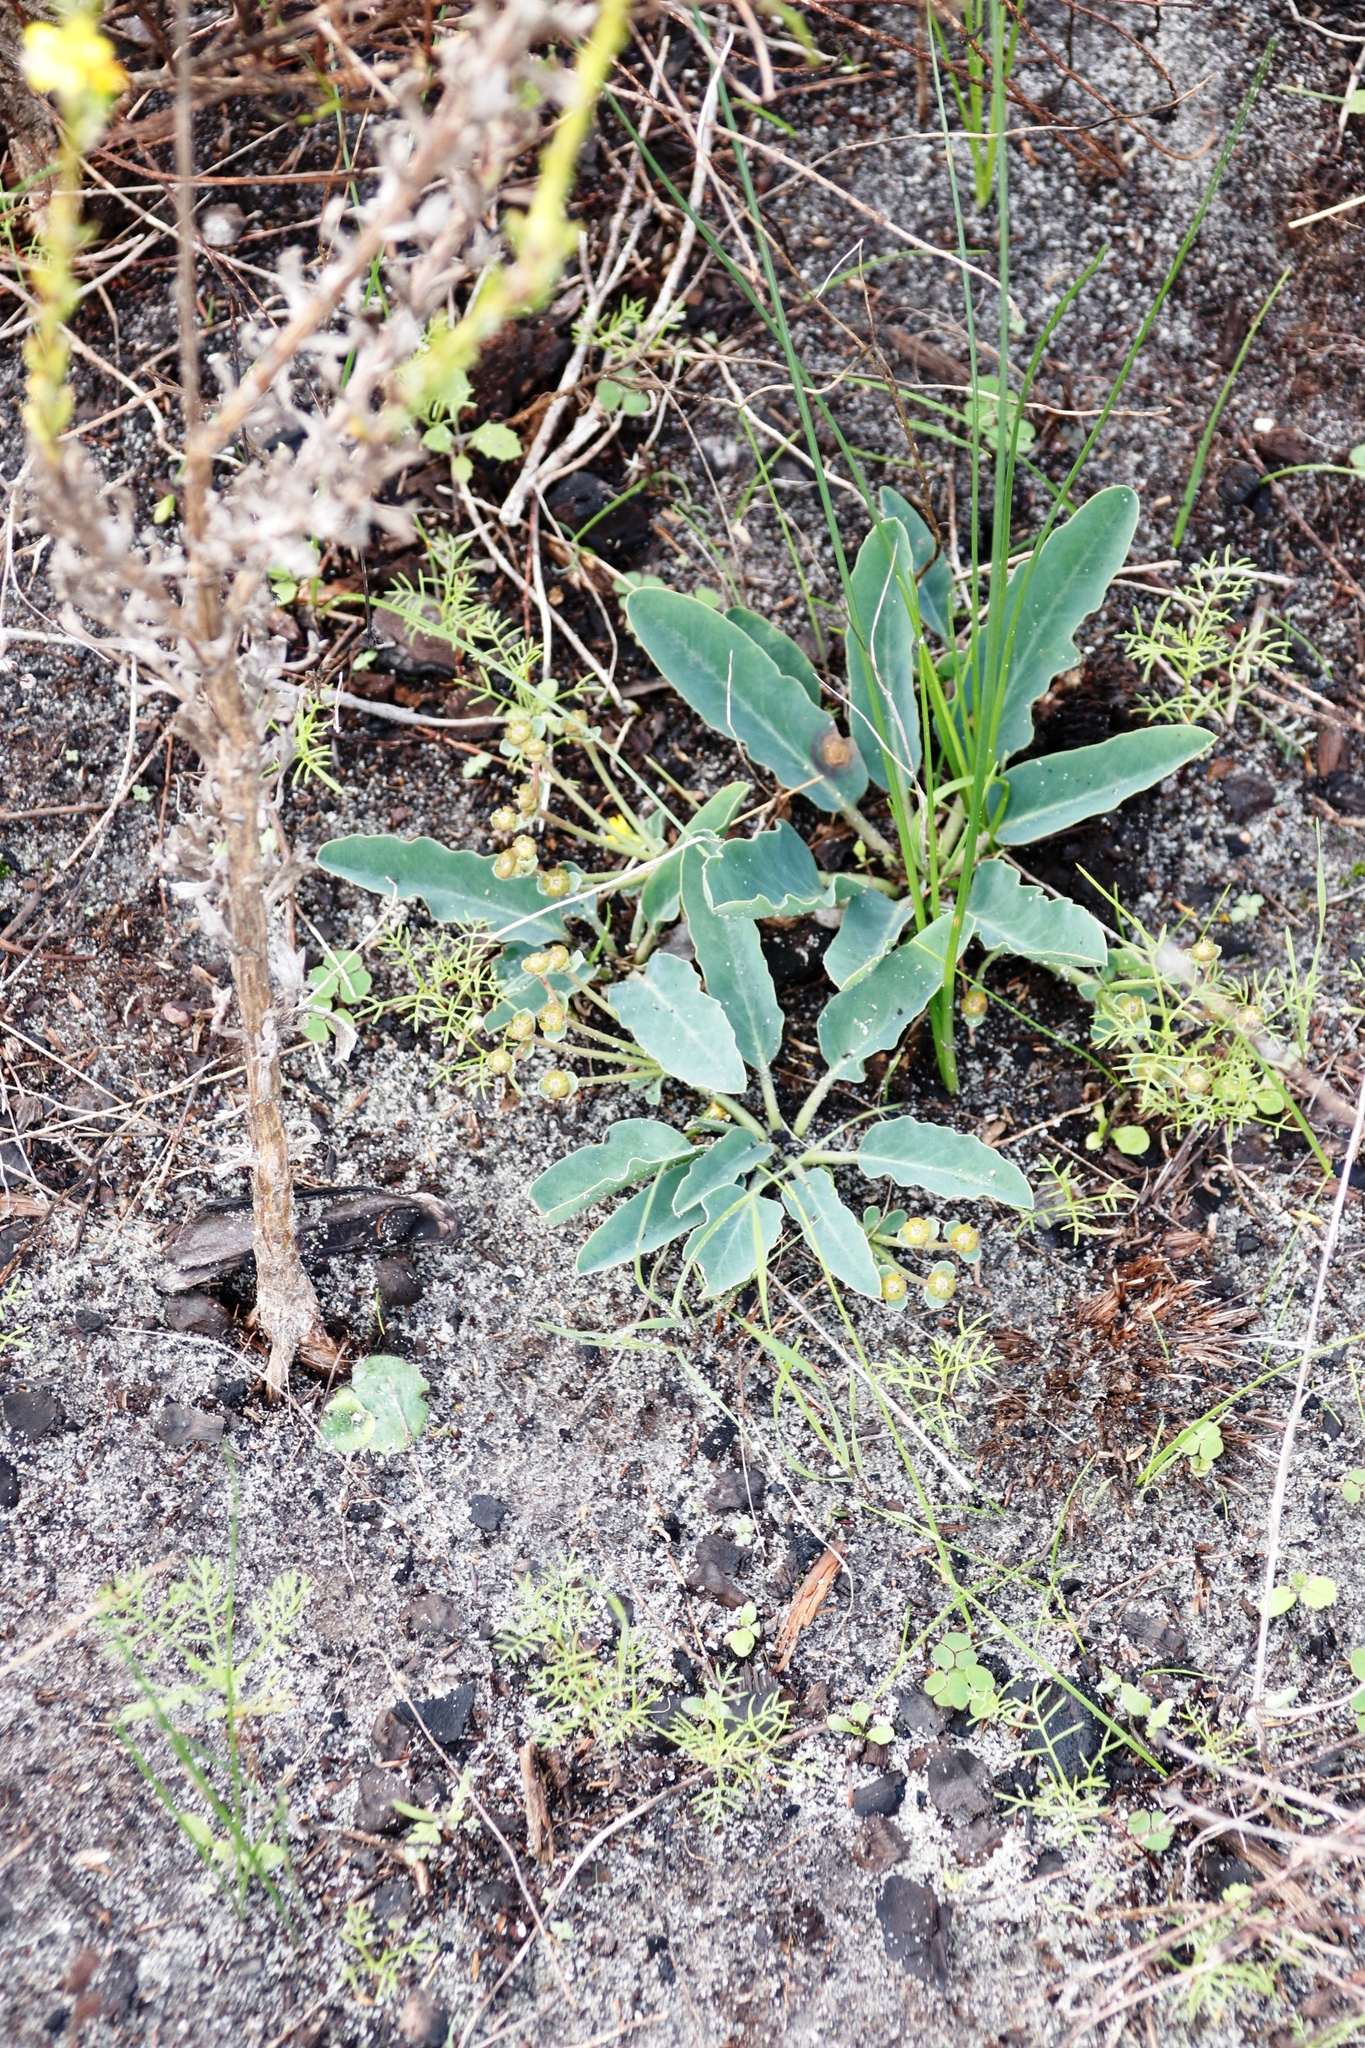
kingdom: Plantae
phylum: Tracheophyta
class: Magnoliopsida
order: Malpighiales
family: Euphorbiaceae
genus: Euphorbia
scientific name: Euphorbia tuberosa
